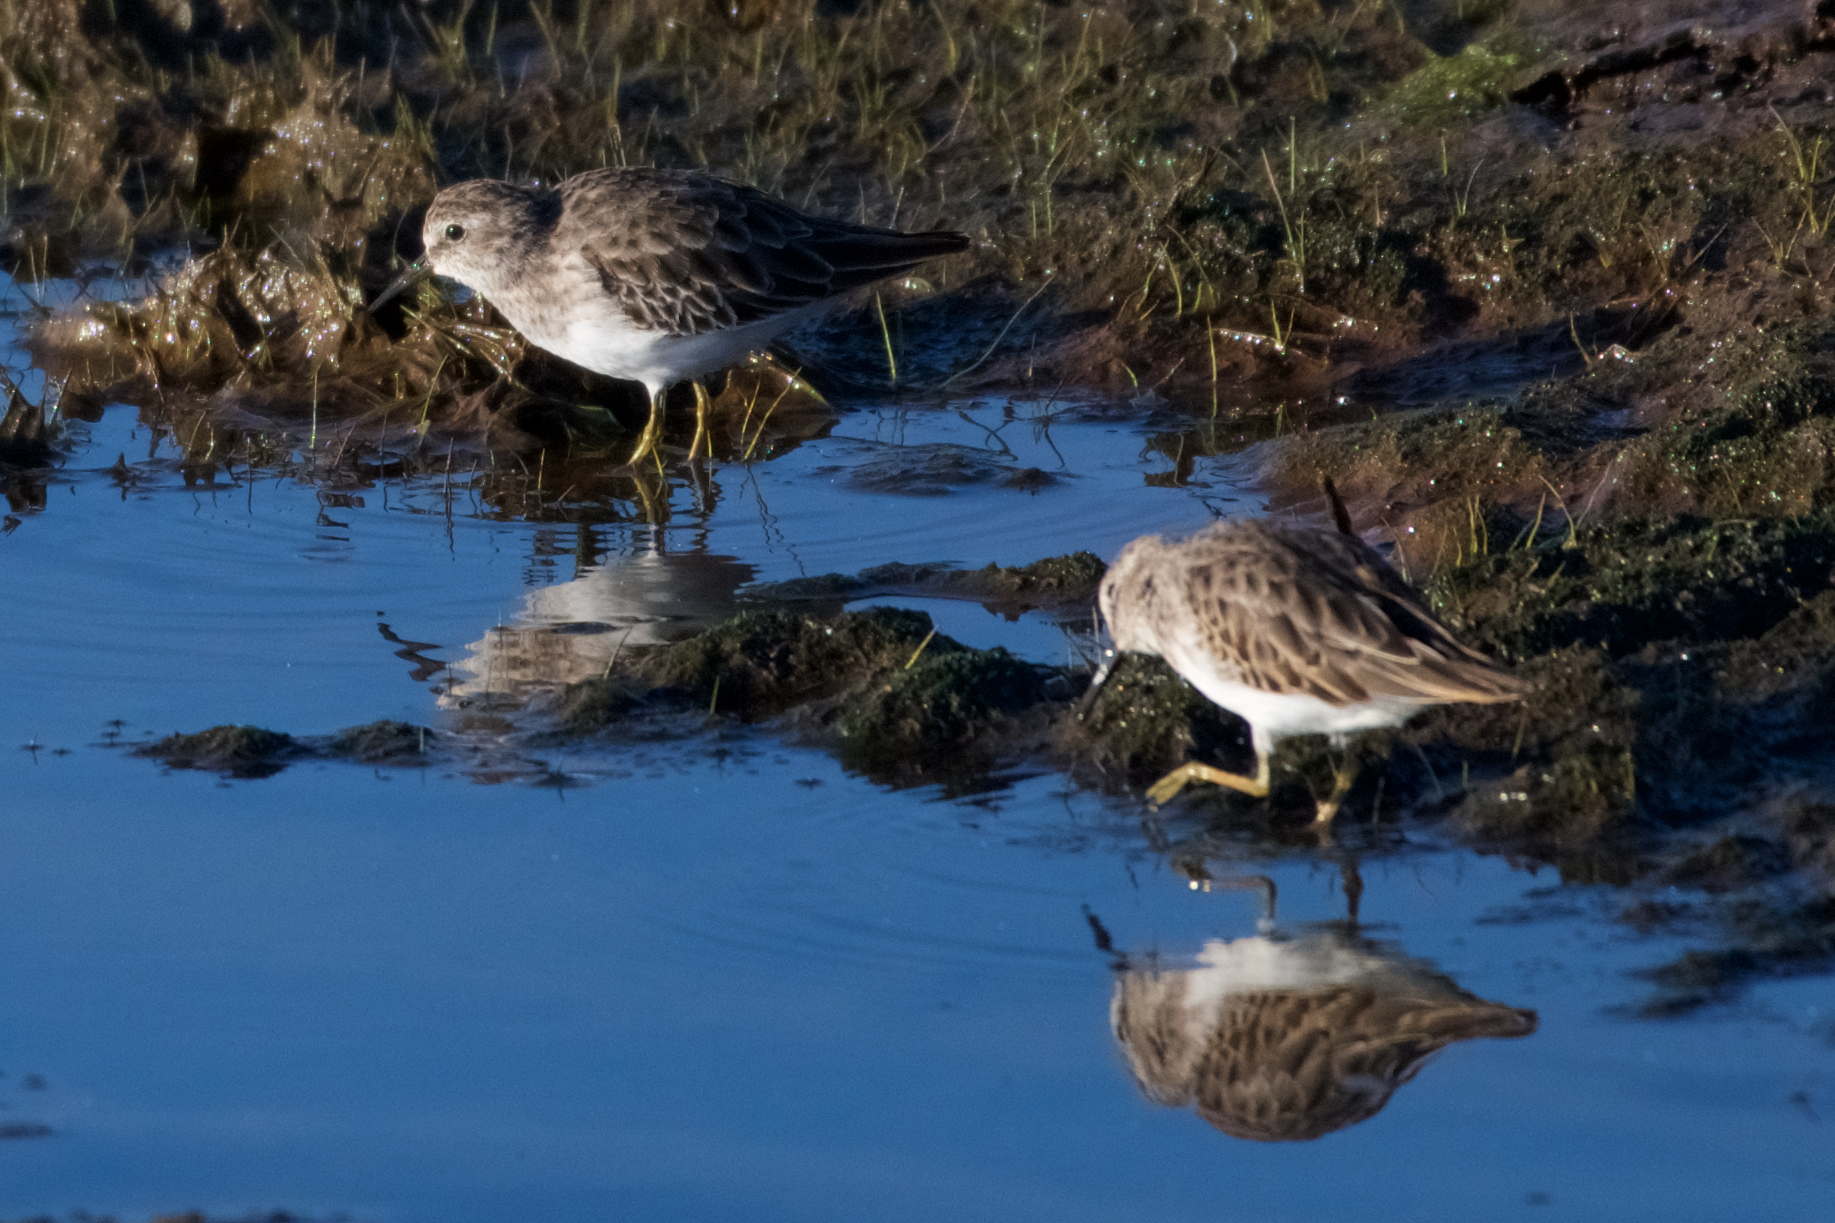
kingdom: Animalia
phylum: Chordata
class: Aves
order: Charadriiformes
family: Scolopacidae
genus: Calidris
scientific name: Calidris minutilla
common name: Least sandpiper
